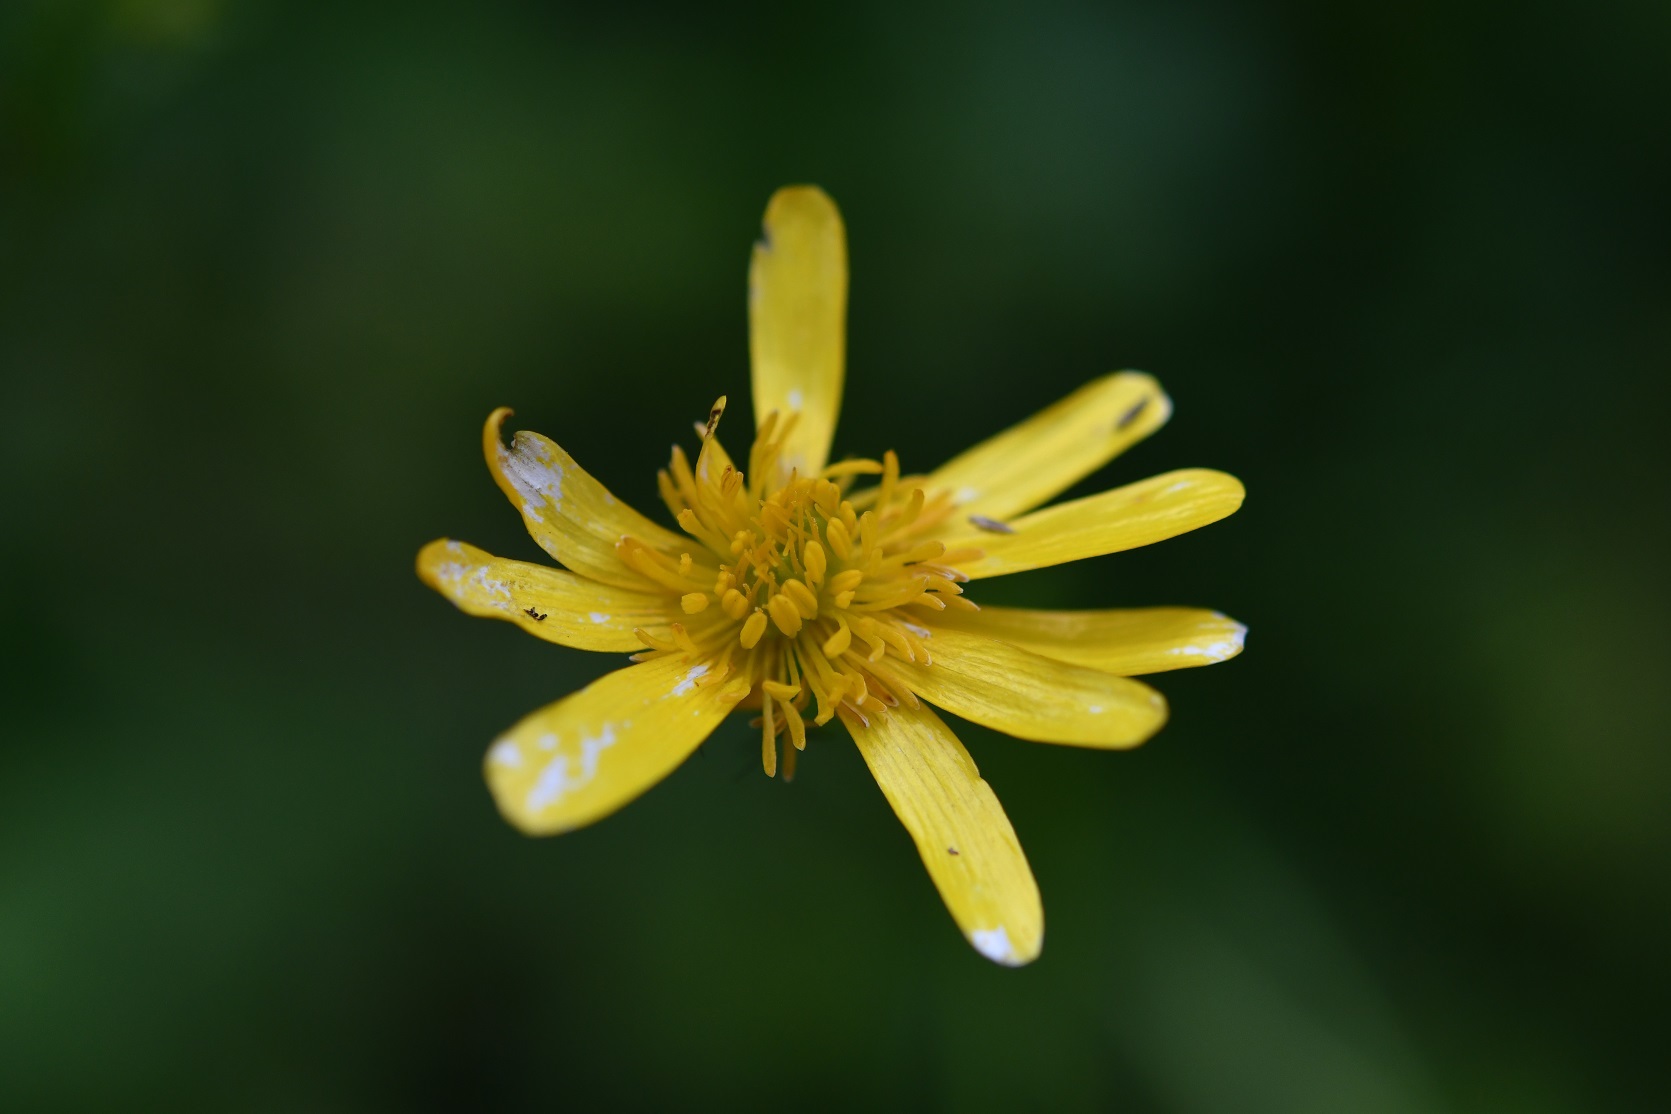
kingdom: Plantae
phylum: Tracheophyta
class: Magnoliopsida
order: Ranunculales
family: Ranunculaceae
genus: Ranunculus
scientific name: Ranunculus petiolaris
